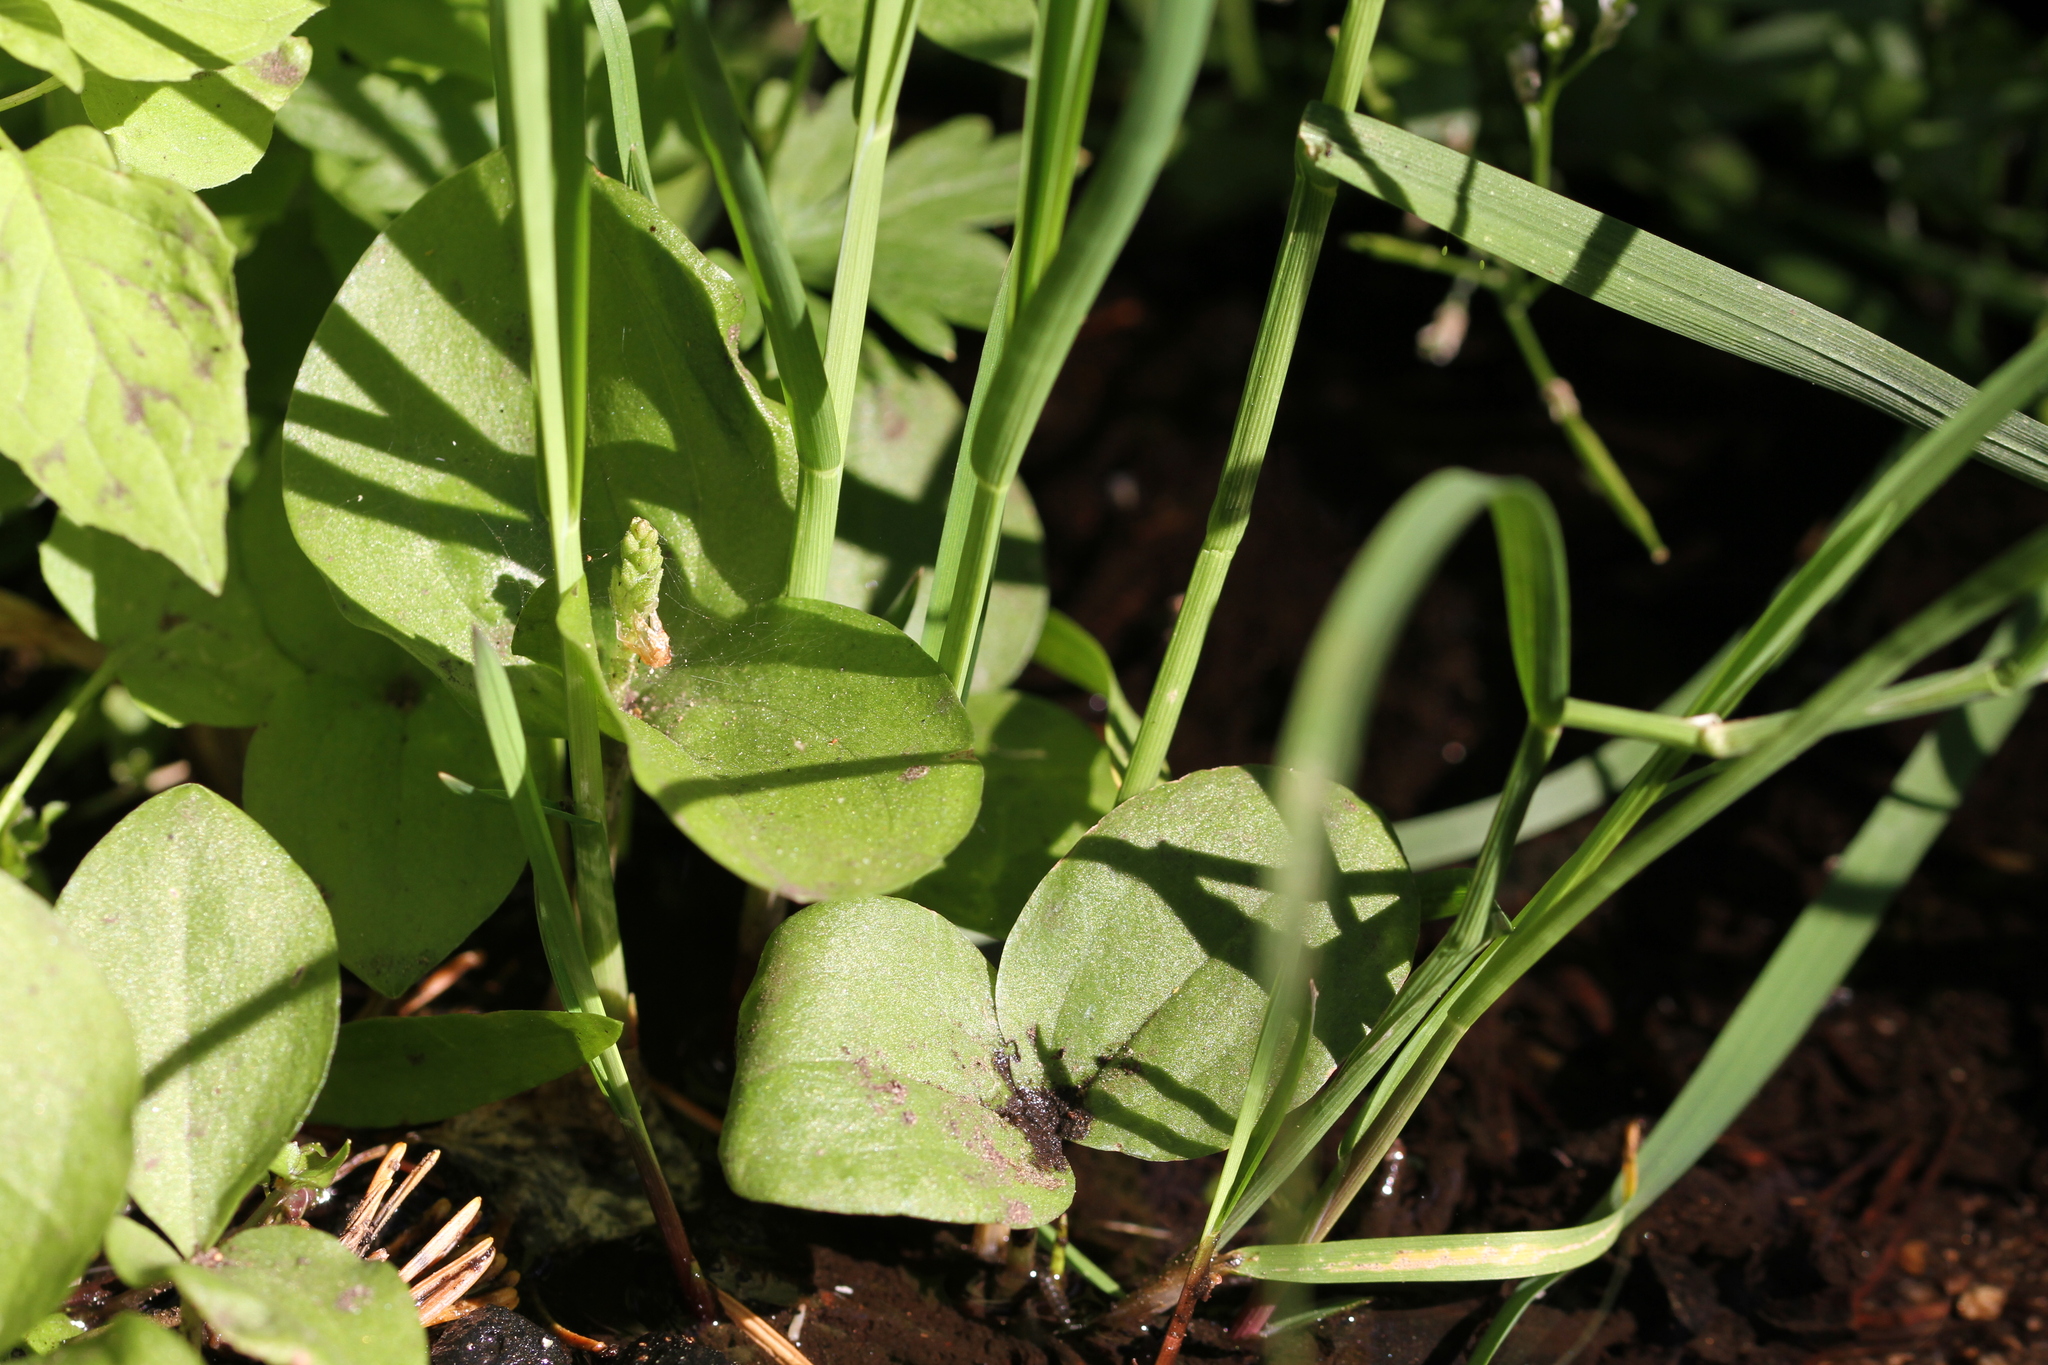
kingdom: Plantae
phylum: Tracheophyta
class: Liliopsida
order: Asparagales
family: Orchidaceae
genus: Neottia
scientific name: Neottia convallarioides
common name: Broadleaf twayblade
